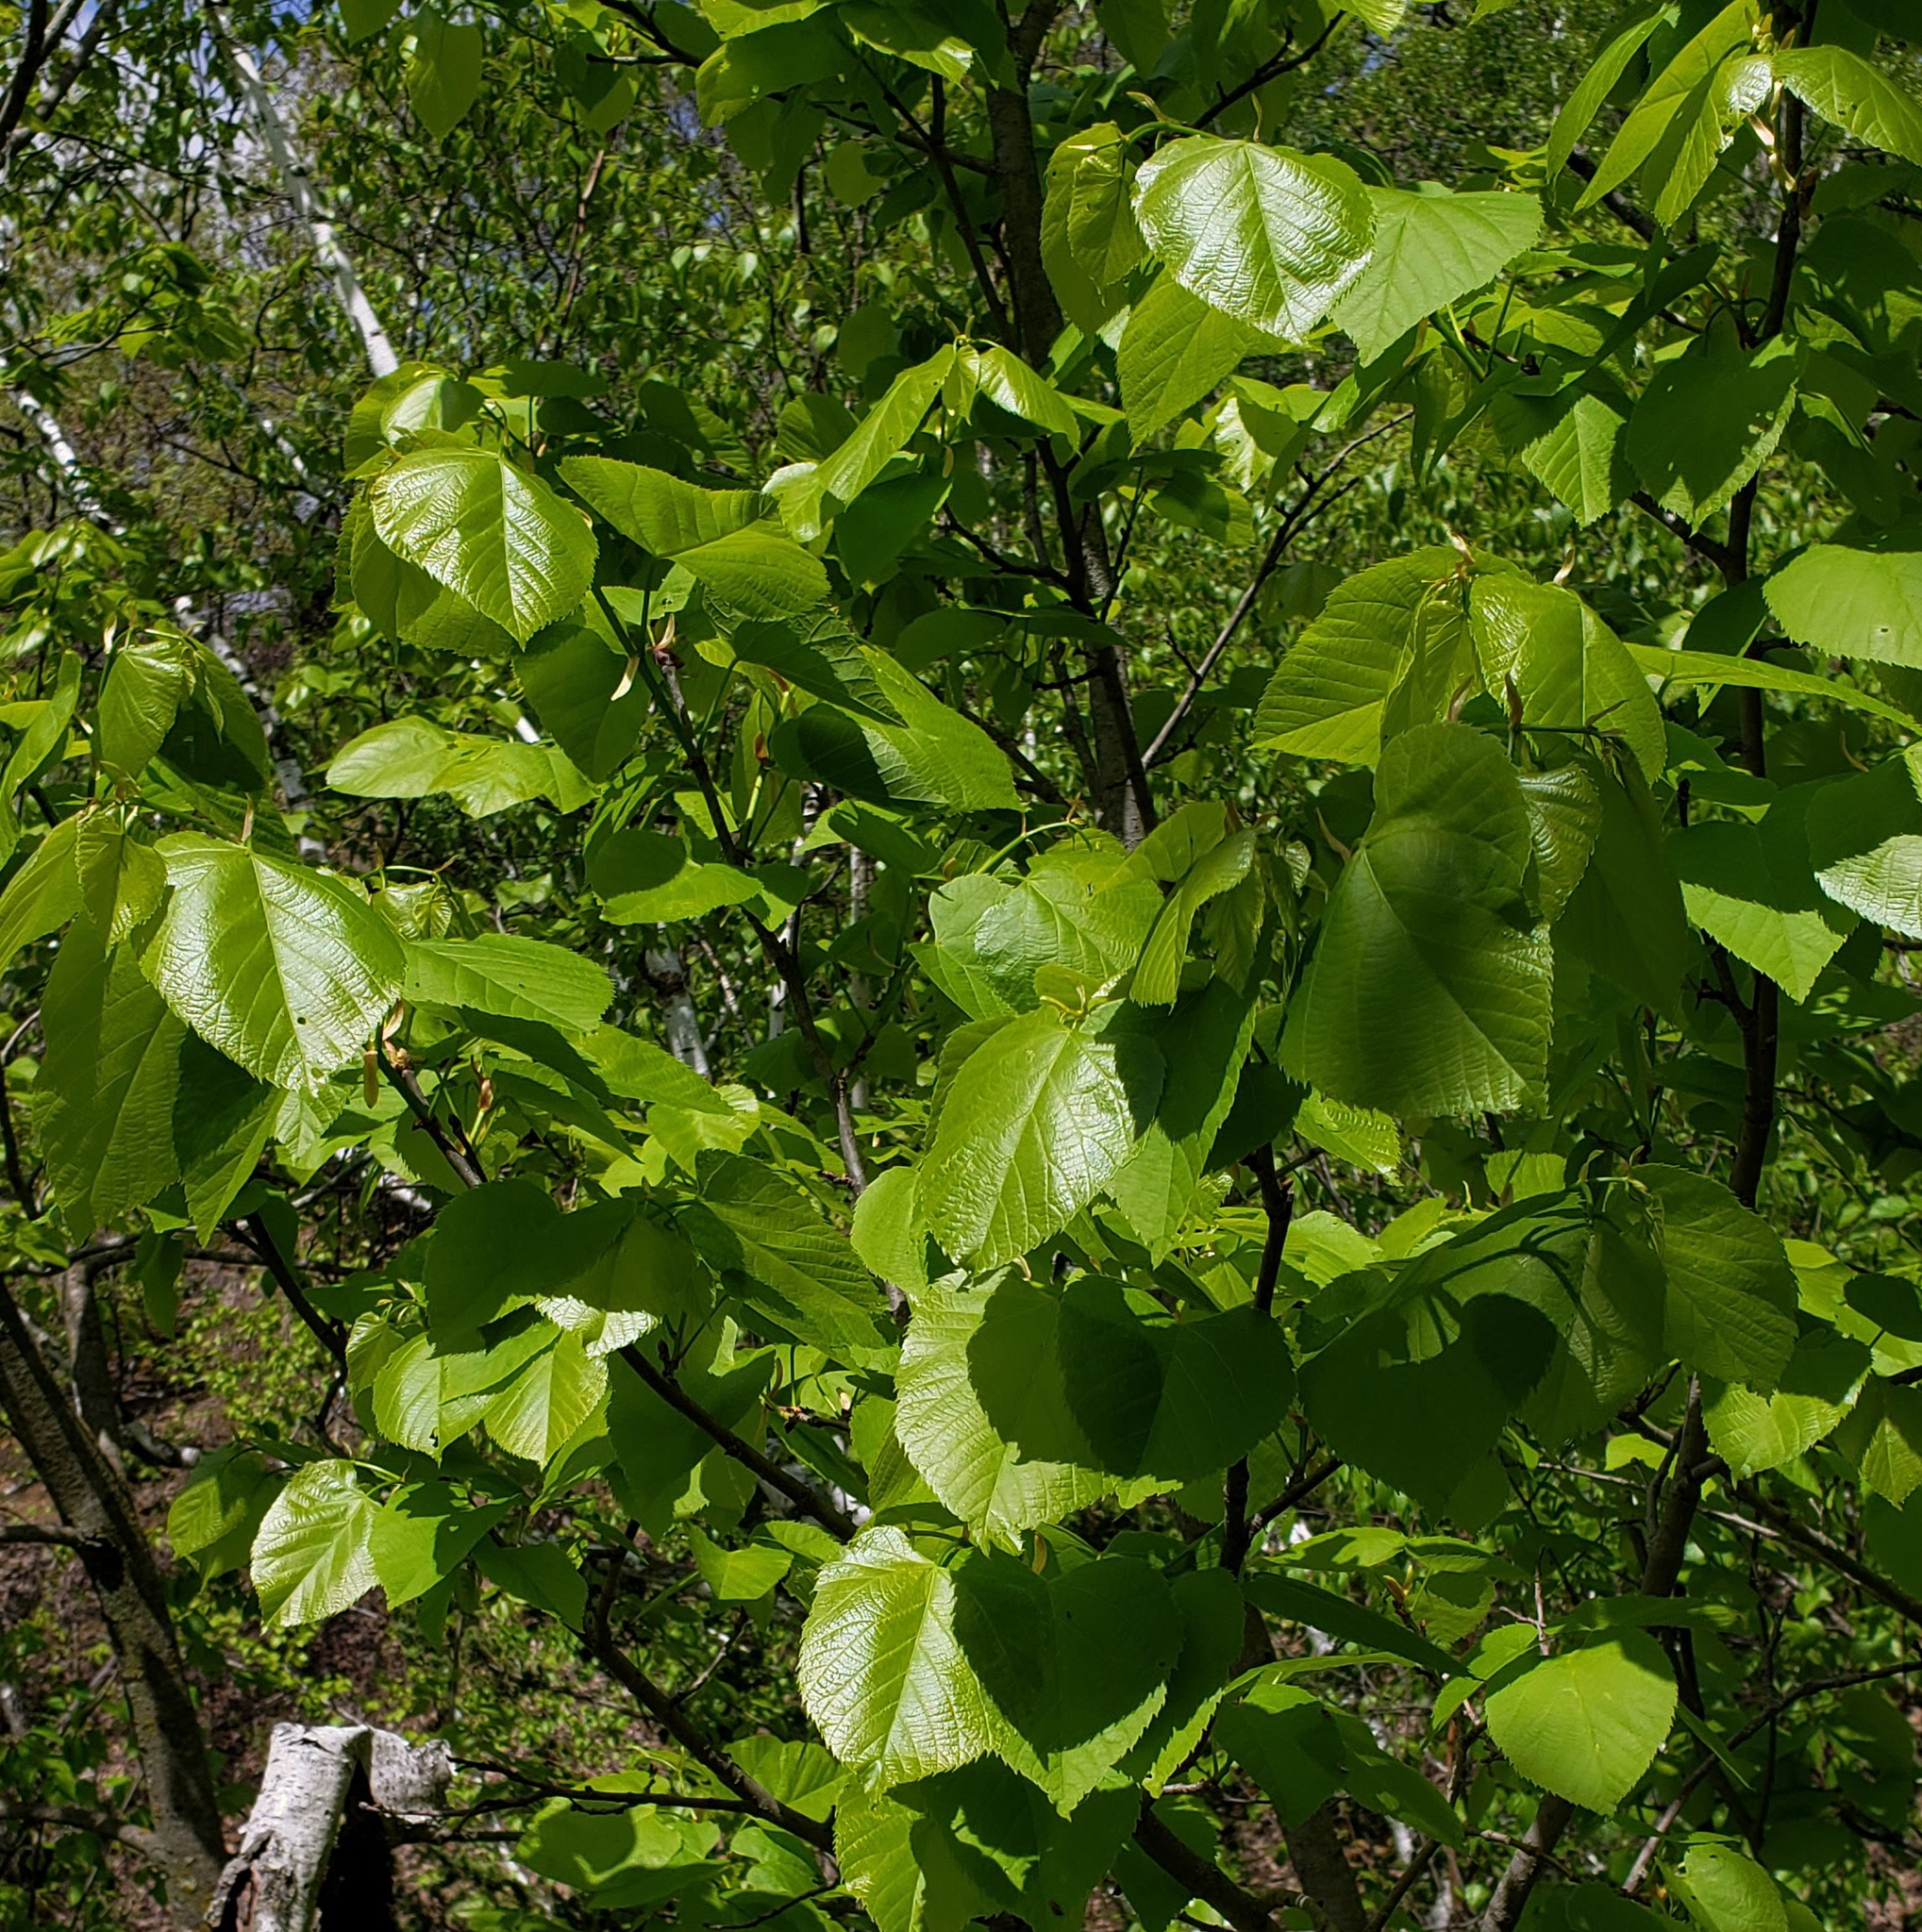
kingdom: Plantae
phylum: Tracheophyta
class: Magnoliopsida
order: Malvales
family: Malvaceae
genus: Tilia
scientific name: Tilia americana
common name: Basswood
